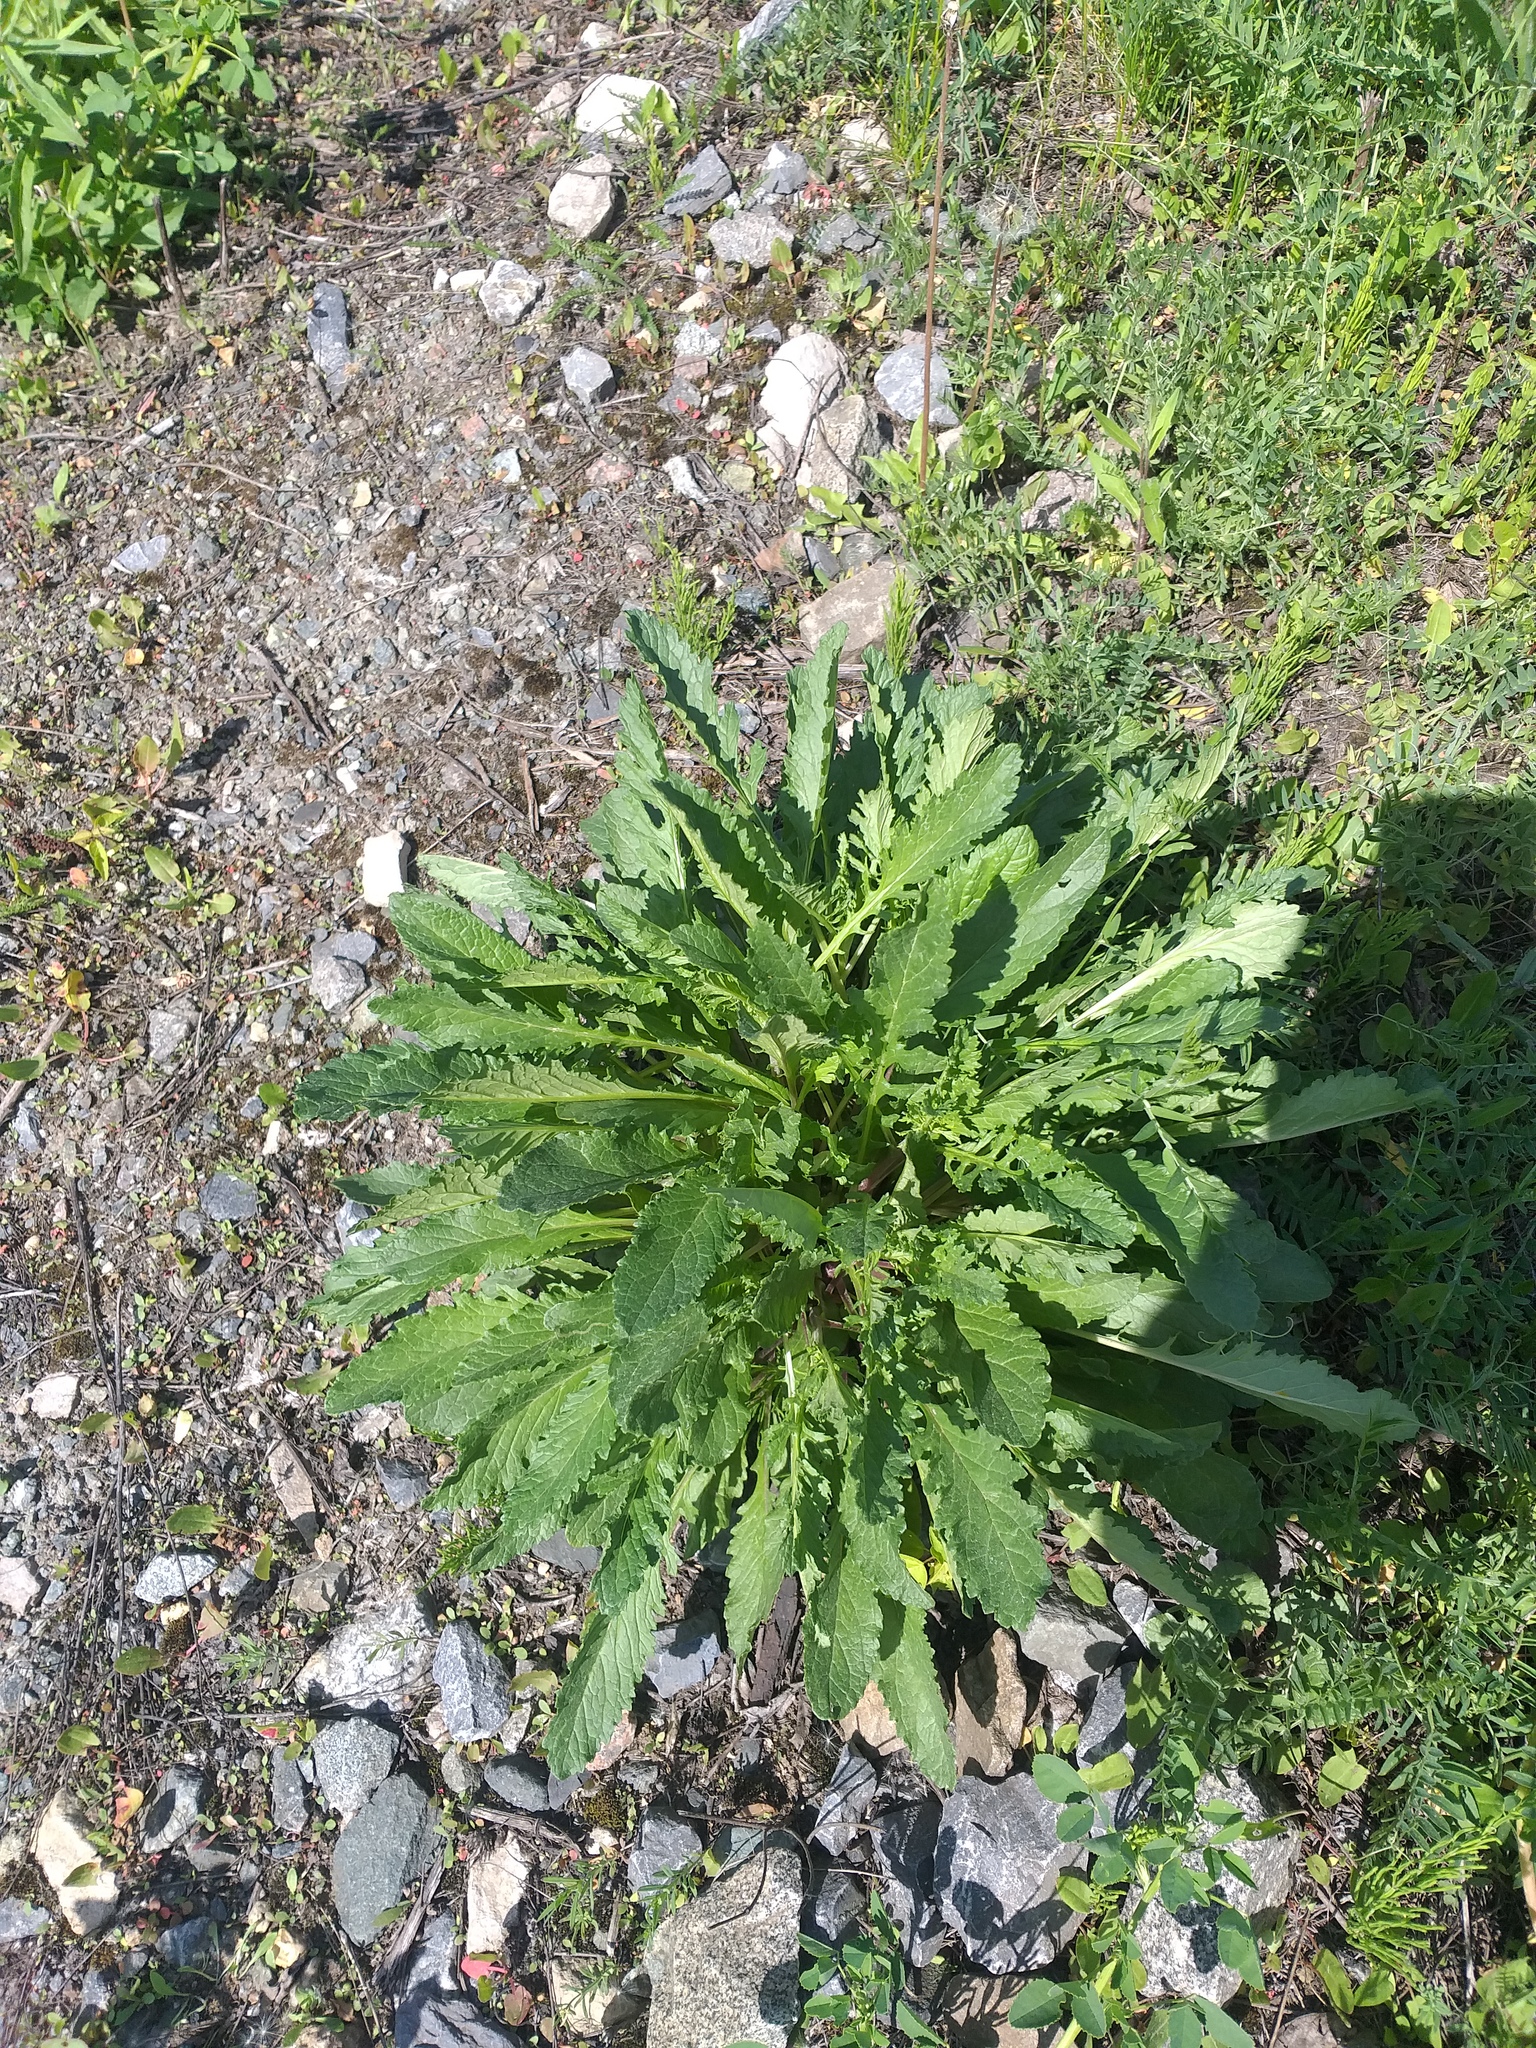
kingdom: Plantae
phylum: Tracheophyta
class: Magnoliopsida
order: Asterales
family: Asteraceae
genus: Jacobaea
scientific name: Jacobaea vulgaris
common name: Stinking willie
